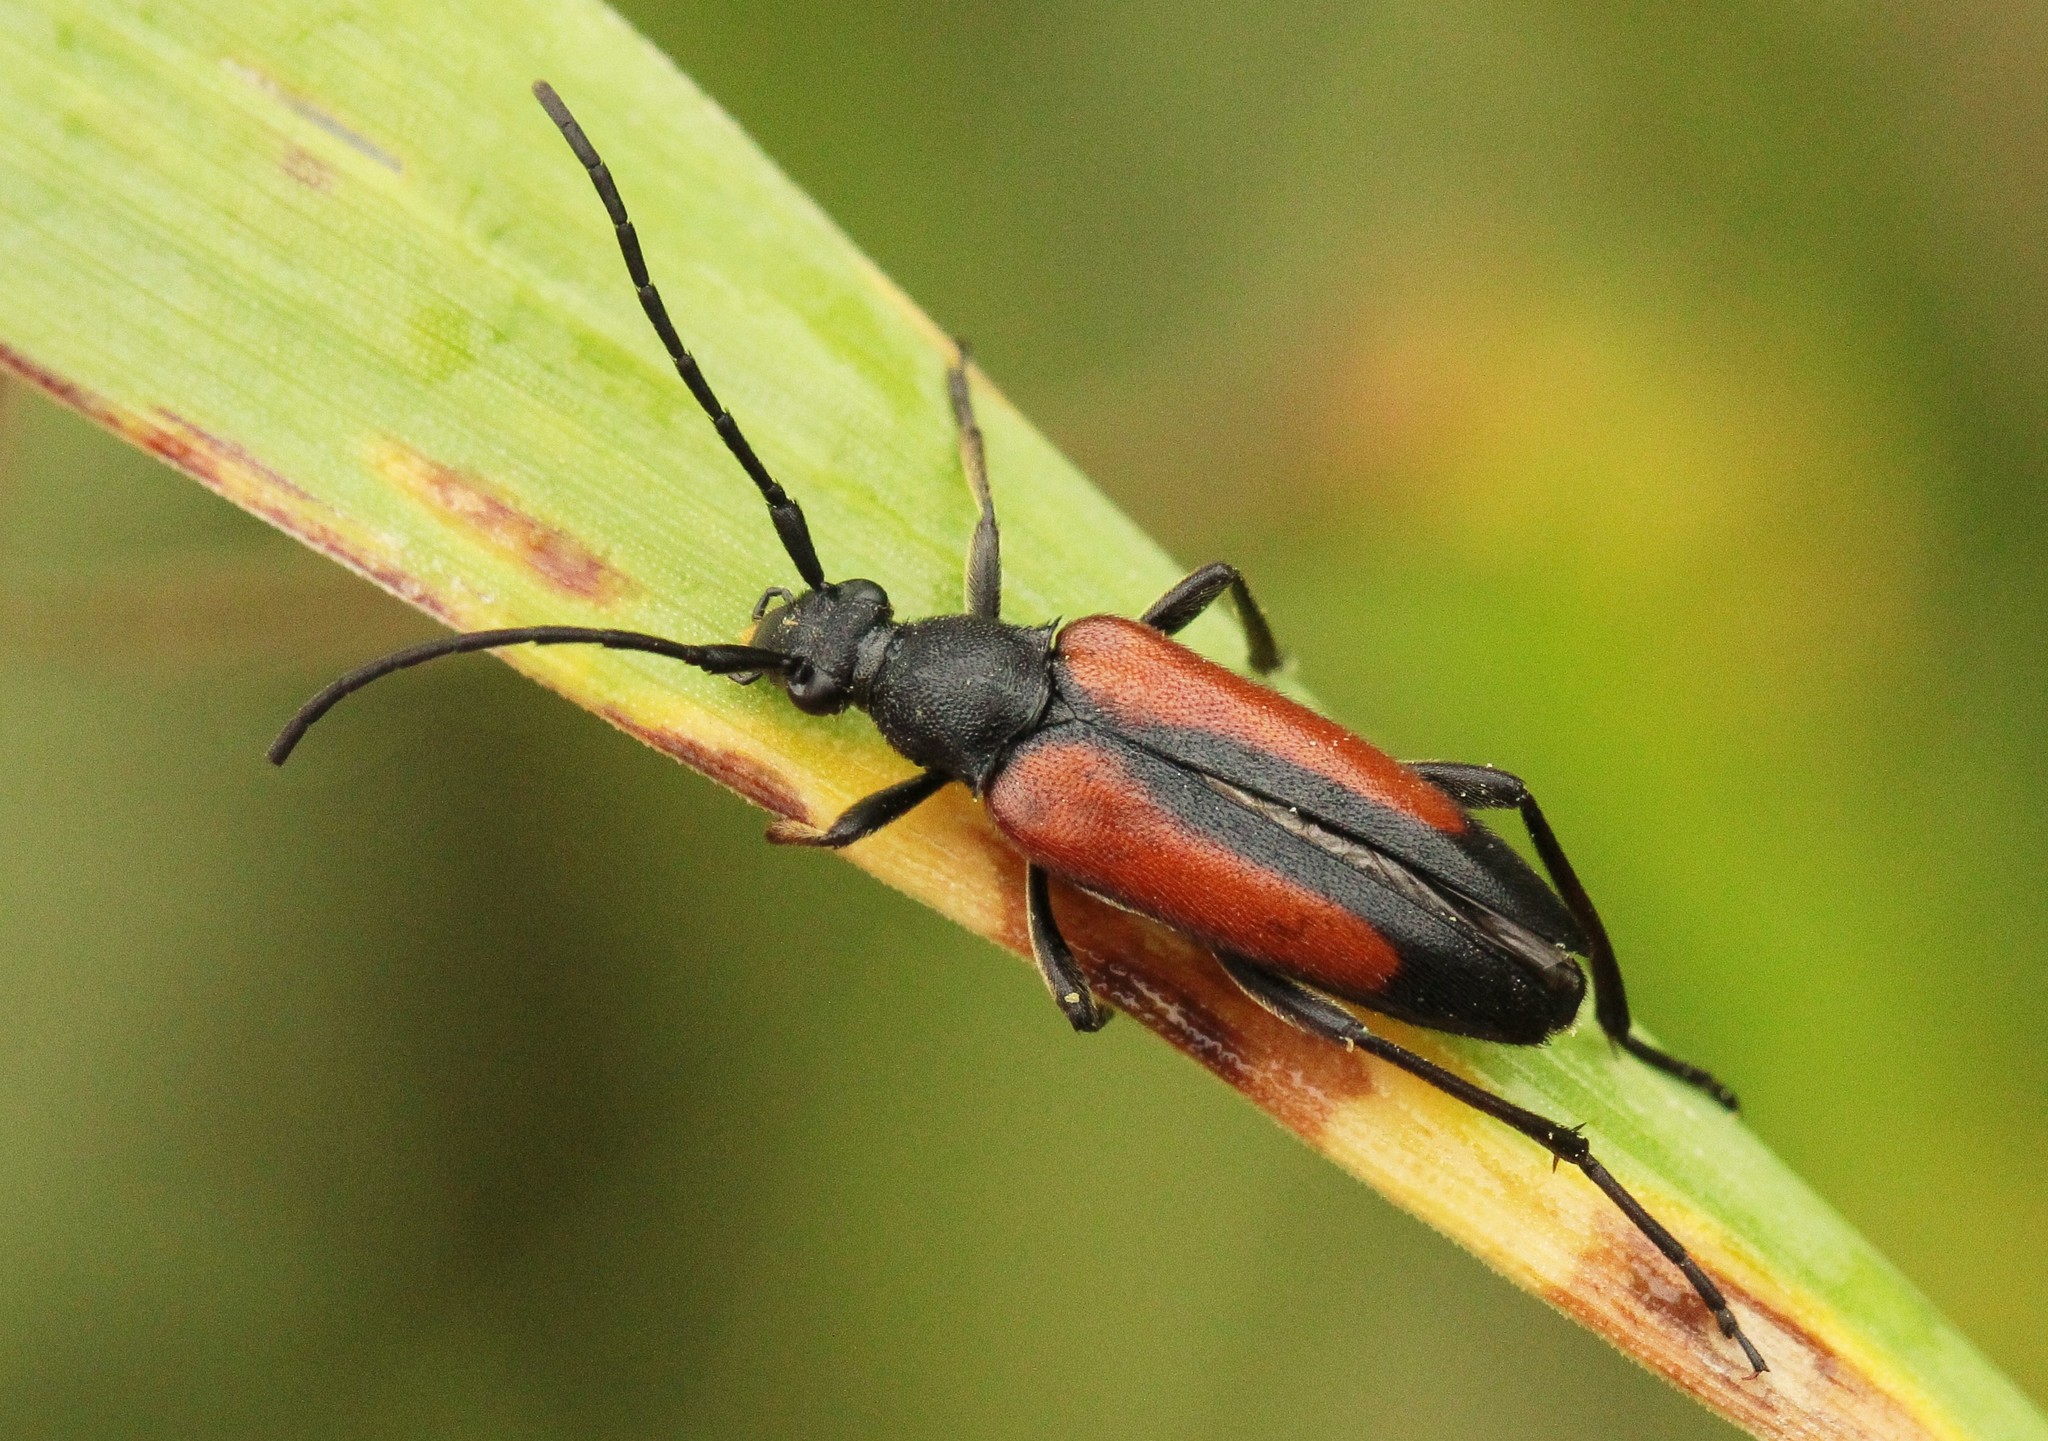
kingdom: Animalia
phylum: Arthropoda
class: Insecta
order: Coleoptera
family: Cerambycidae
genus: Stenurella
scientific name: Stenurella melanura
